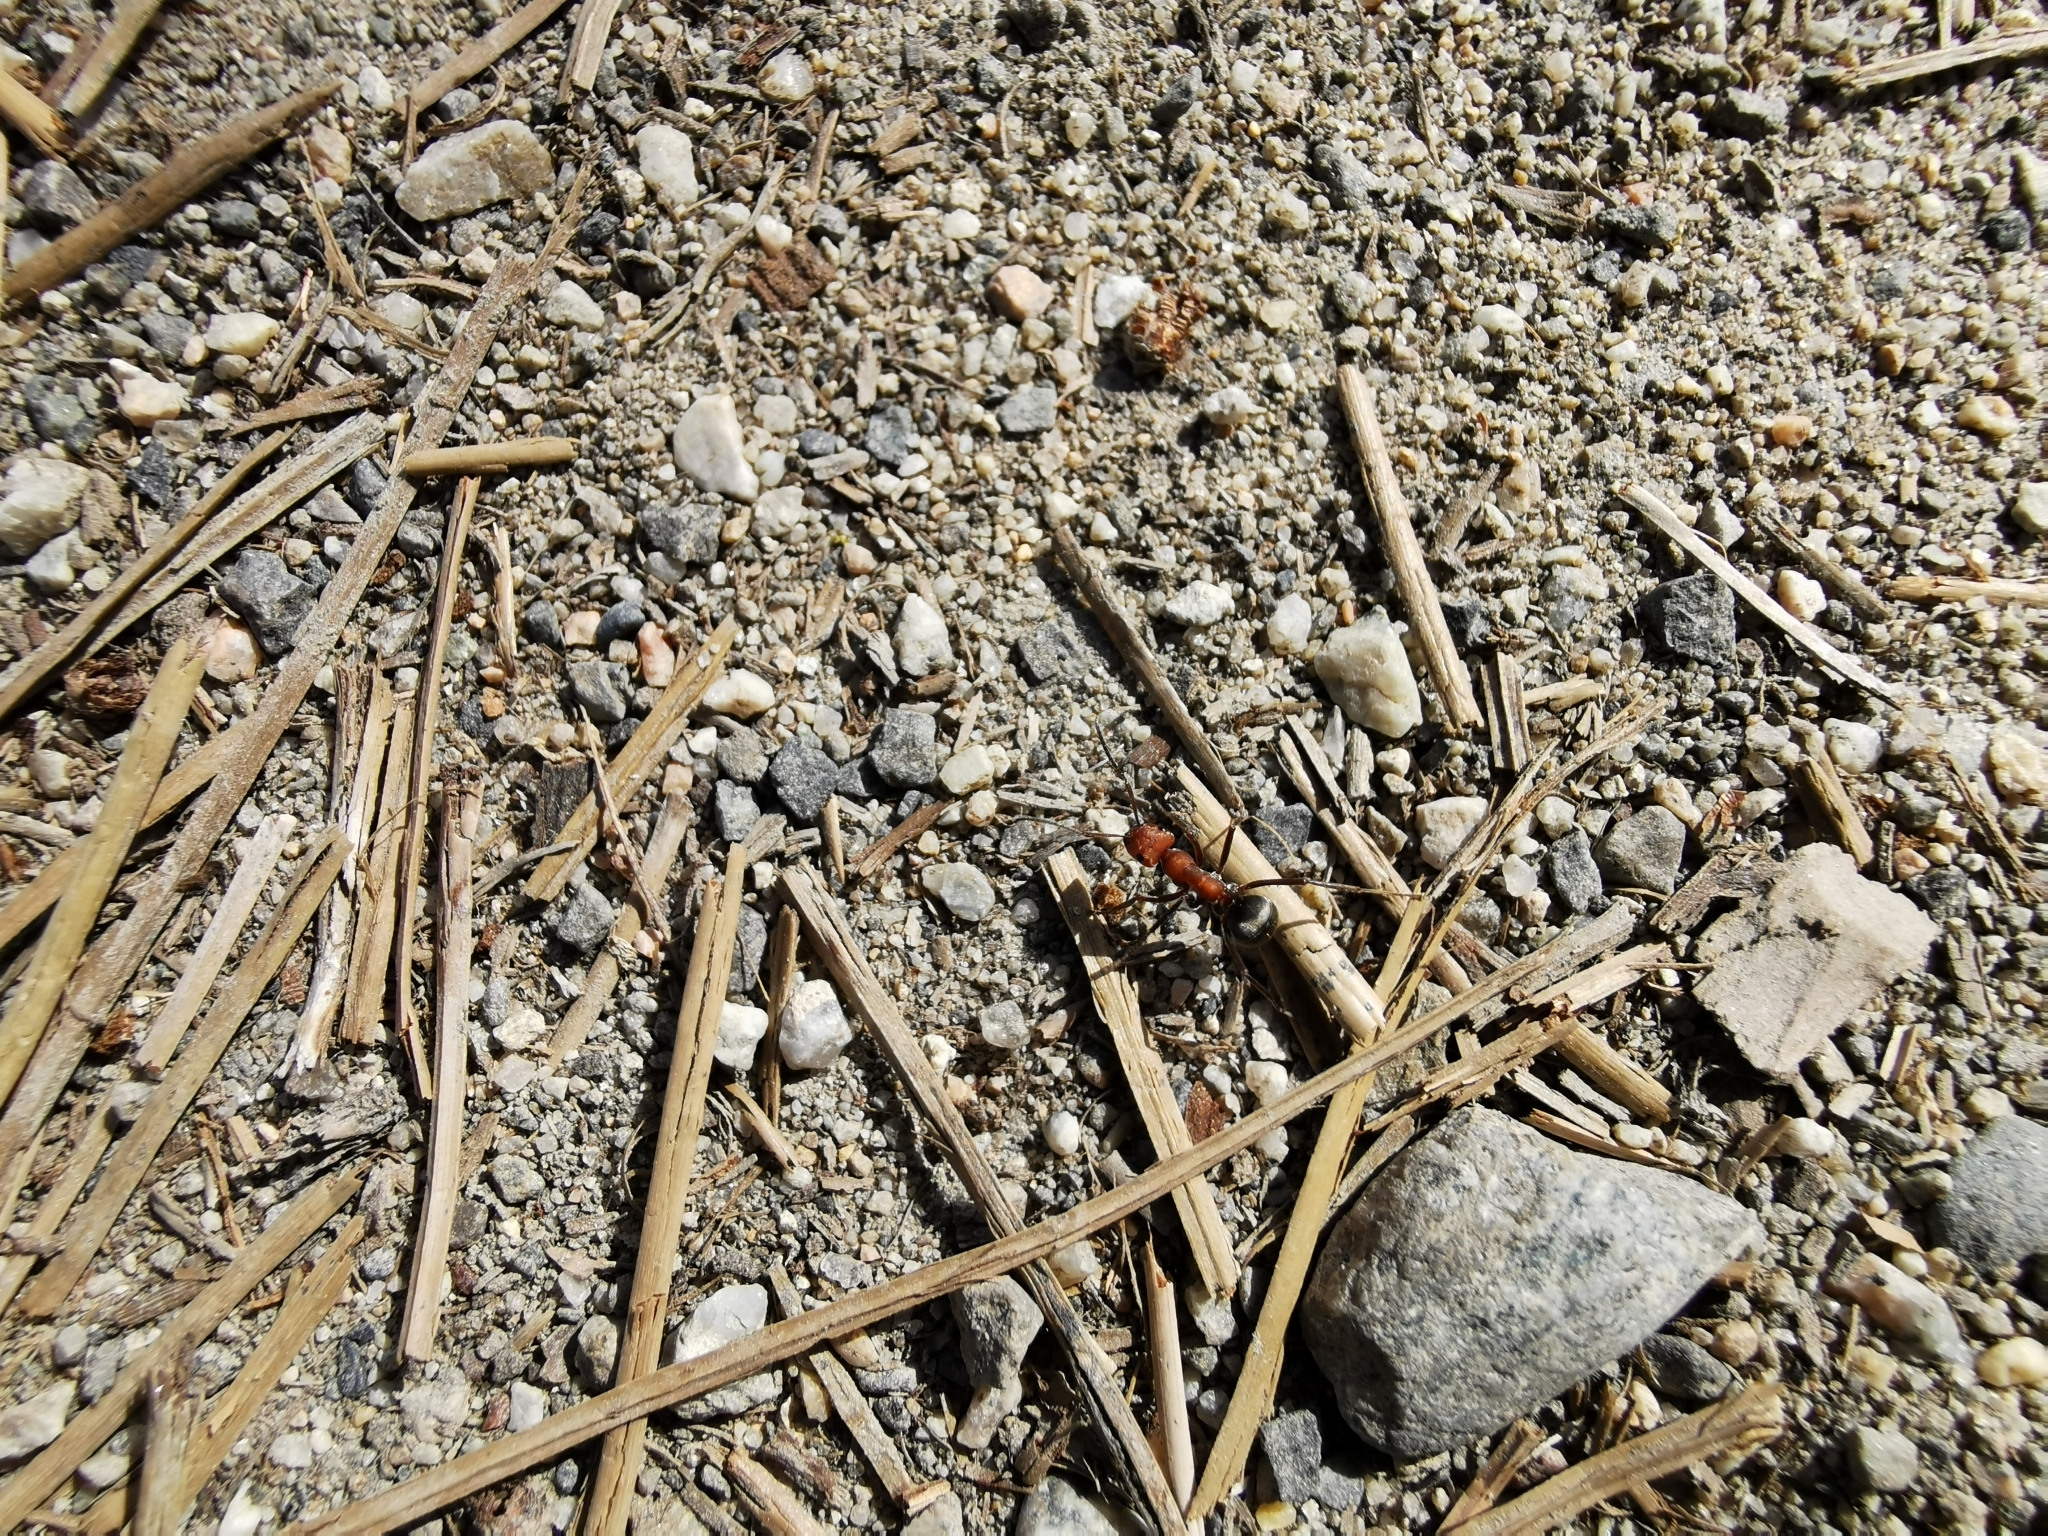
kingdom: Animalia
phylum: Arthropoda
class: Insecta
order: Hymenoptera
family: Formicidae
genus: Formica
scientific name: Formica obscuripes
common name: Western thatching ant
